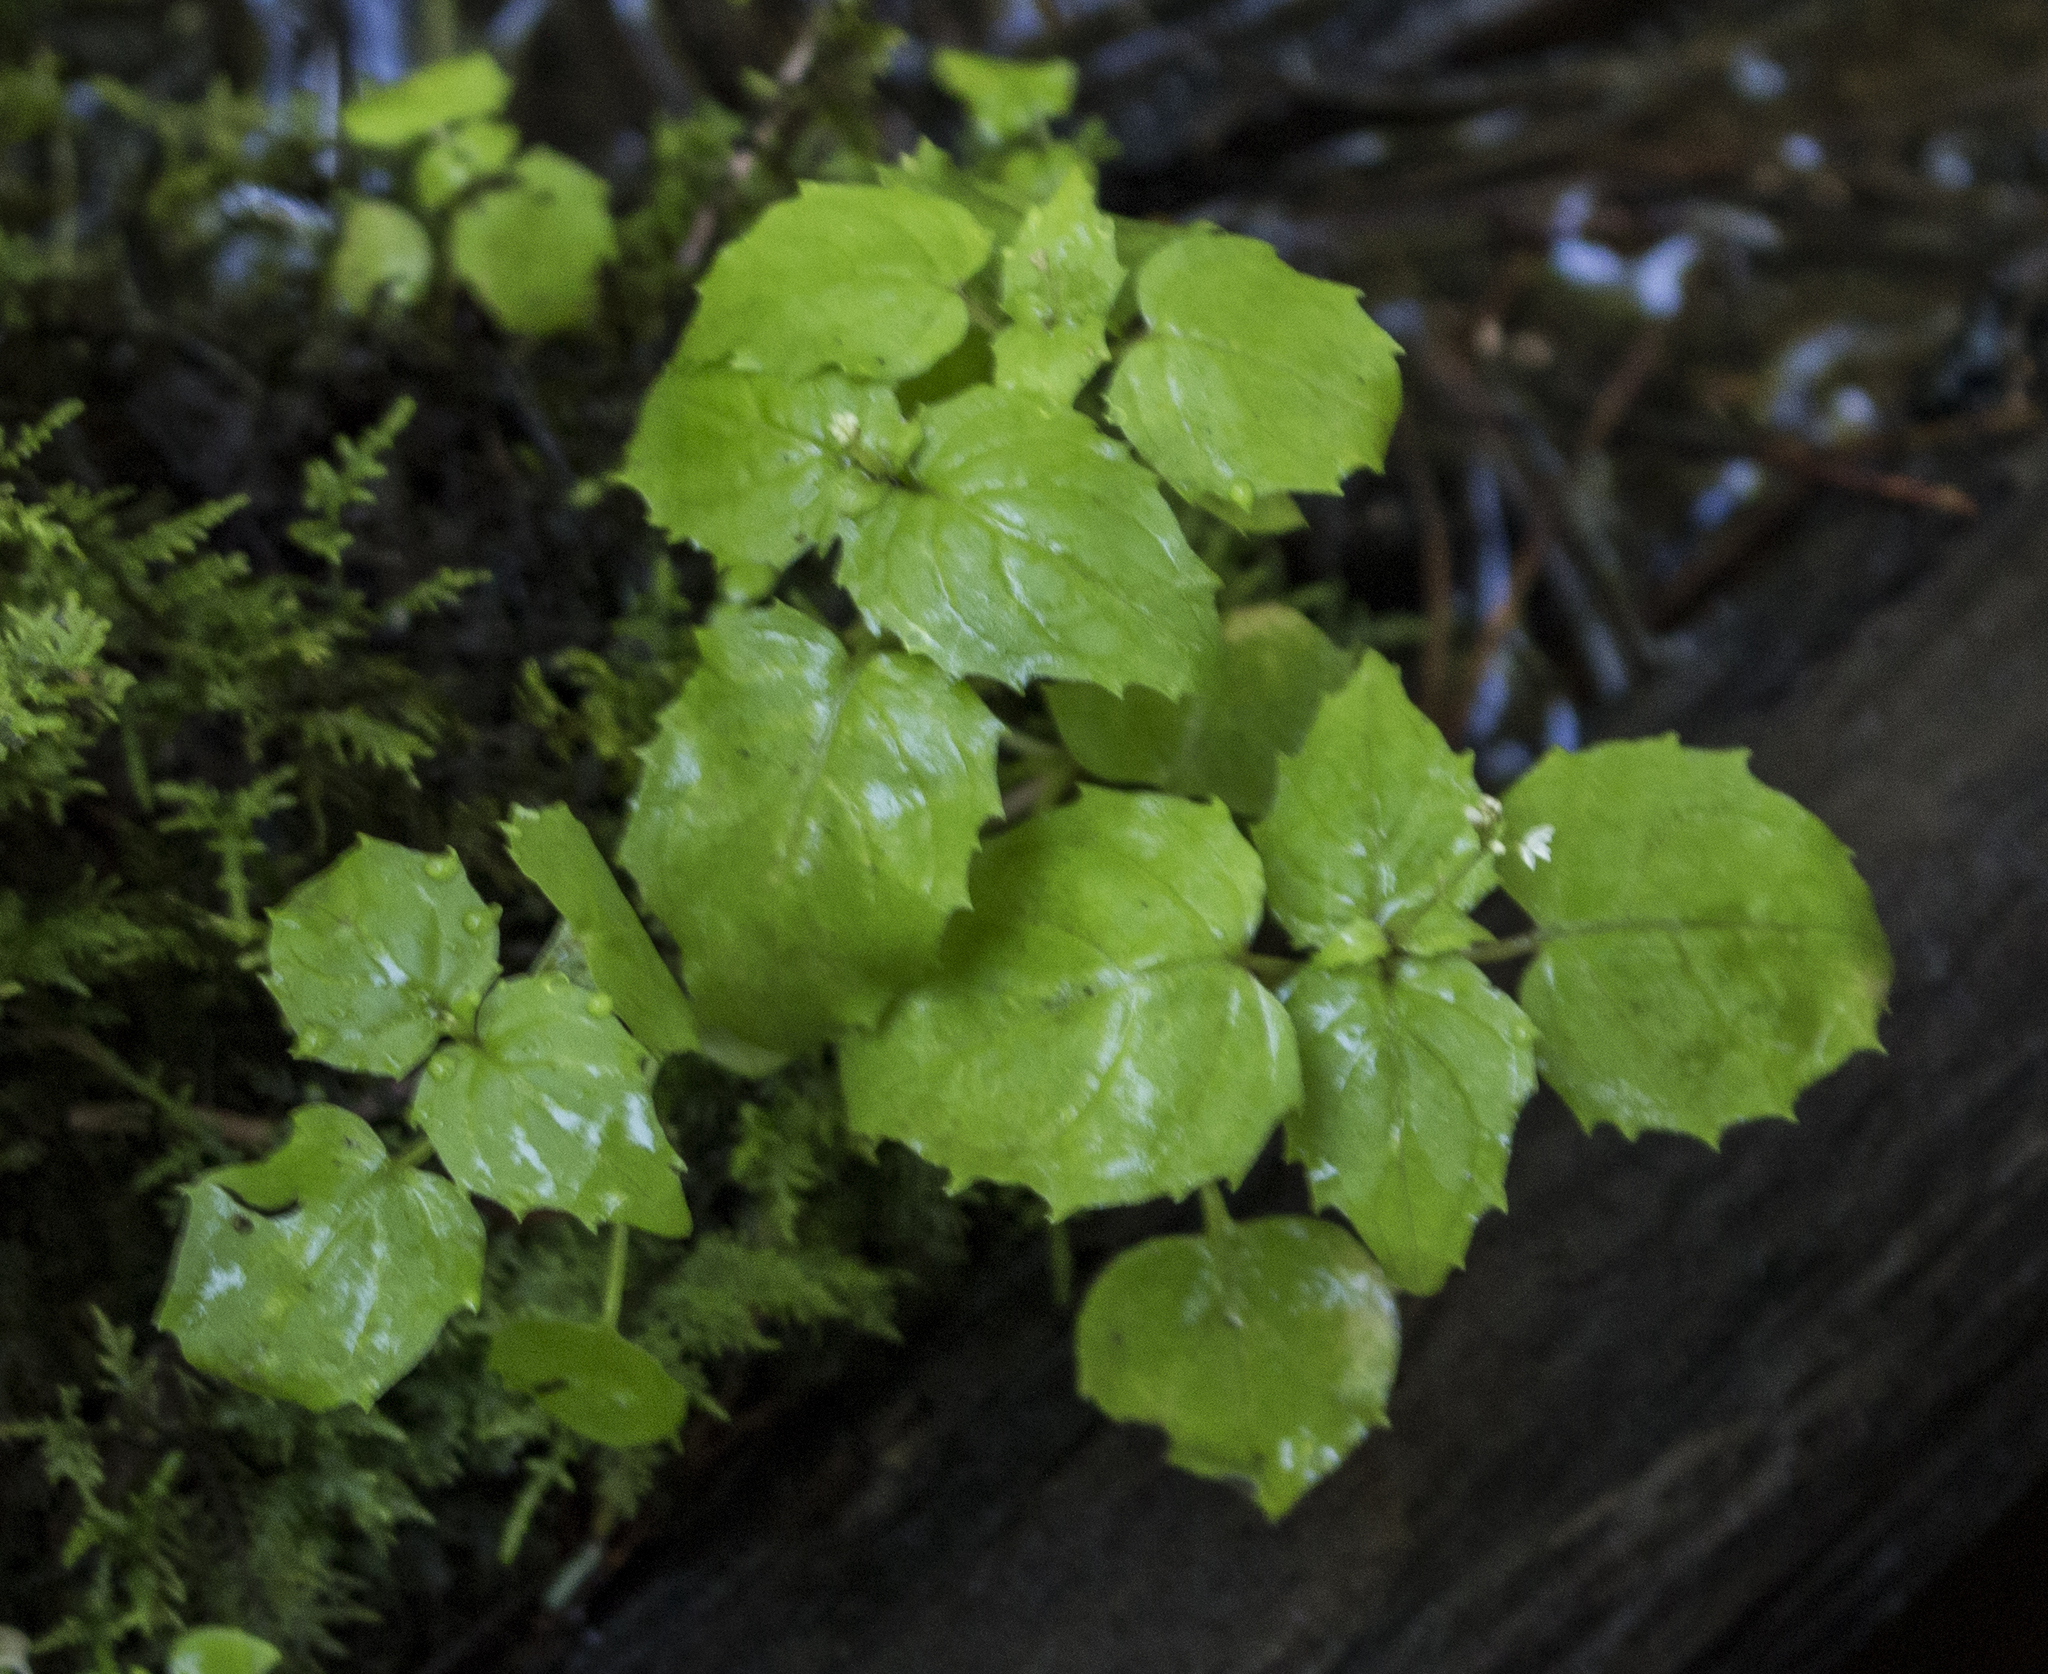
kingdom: Plantae
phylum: Tracheophyta
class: Magnoliopsida
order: Myrtales
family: Onagraceae
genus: Circaea
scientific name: Circaea alpina
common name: Alpine enchanter's-nightshade
